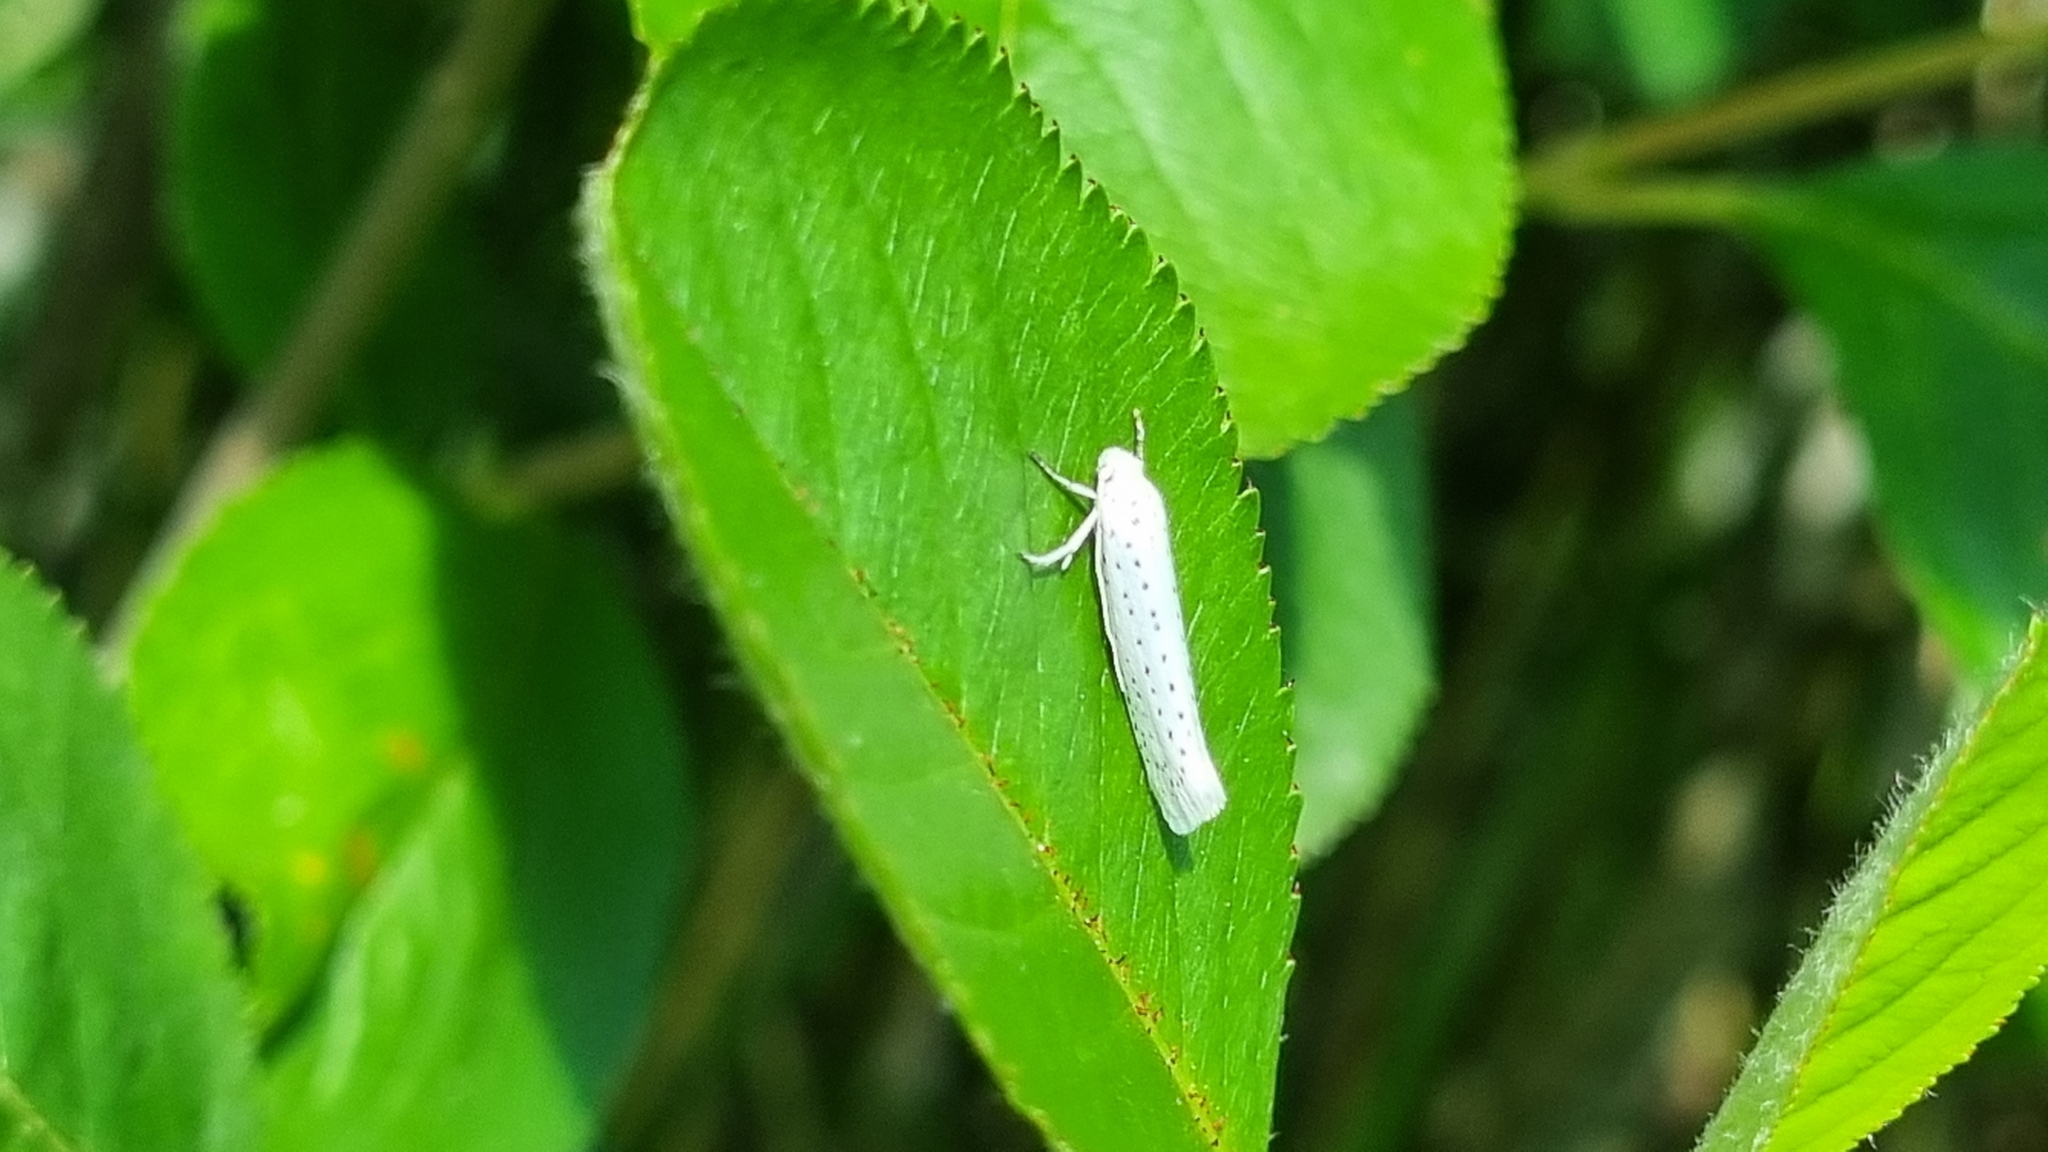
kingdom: Animalia
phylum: Arthropoda
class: Insecta
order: Lepidoptera
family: Yponomeutidae
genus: Yponomeuta
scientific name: Yponomeuta evonymella
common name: Bird-cherry ermine
